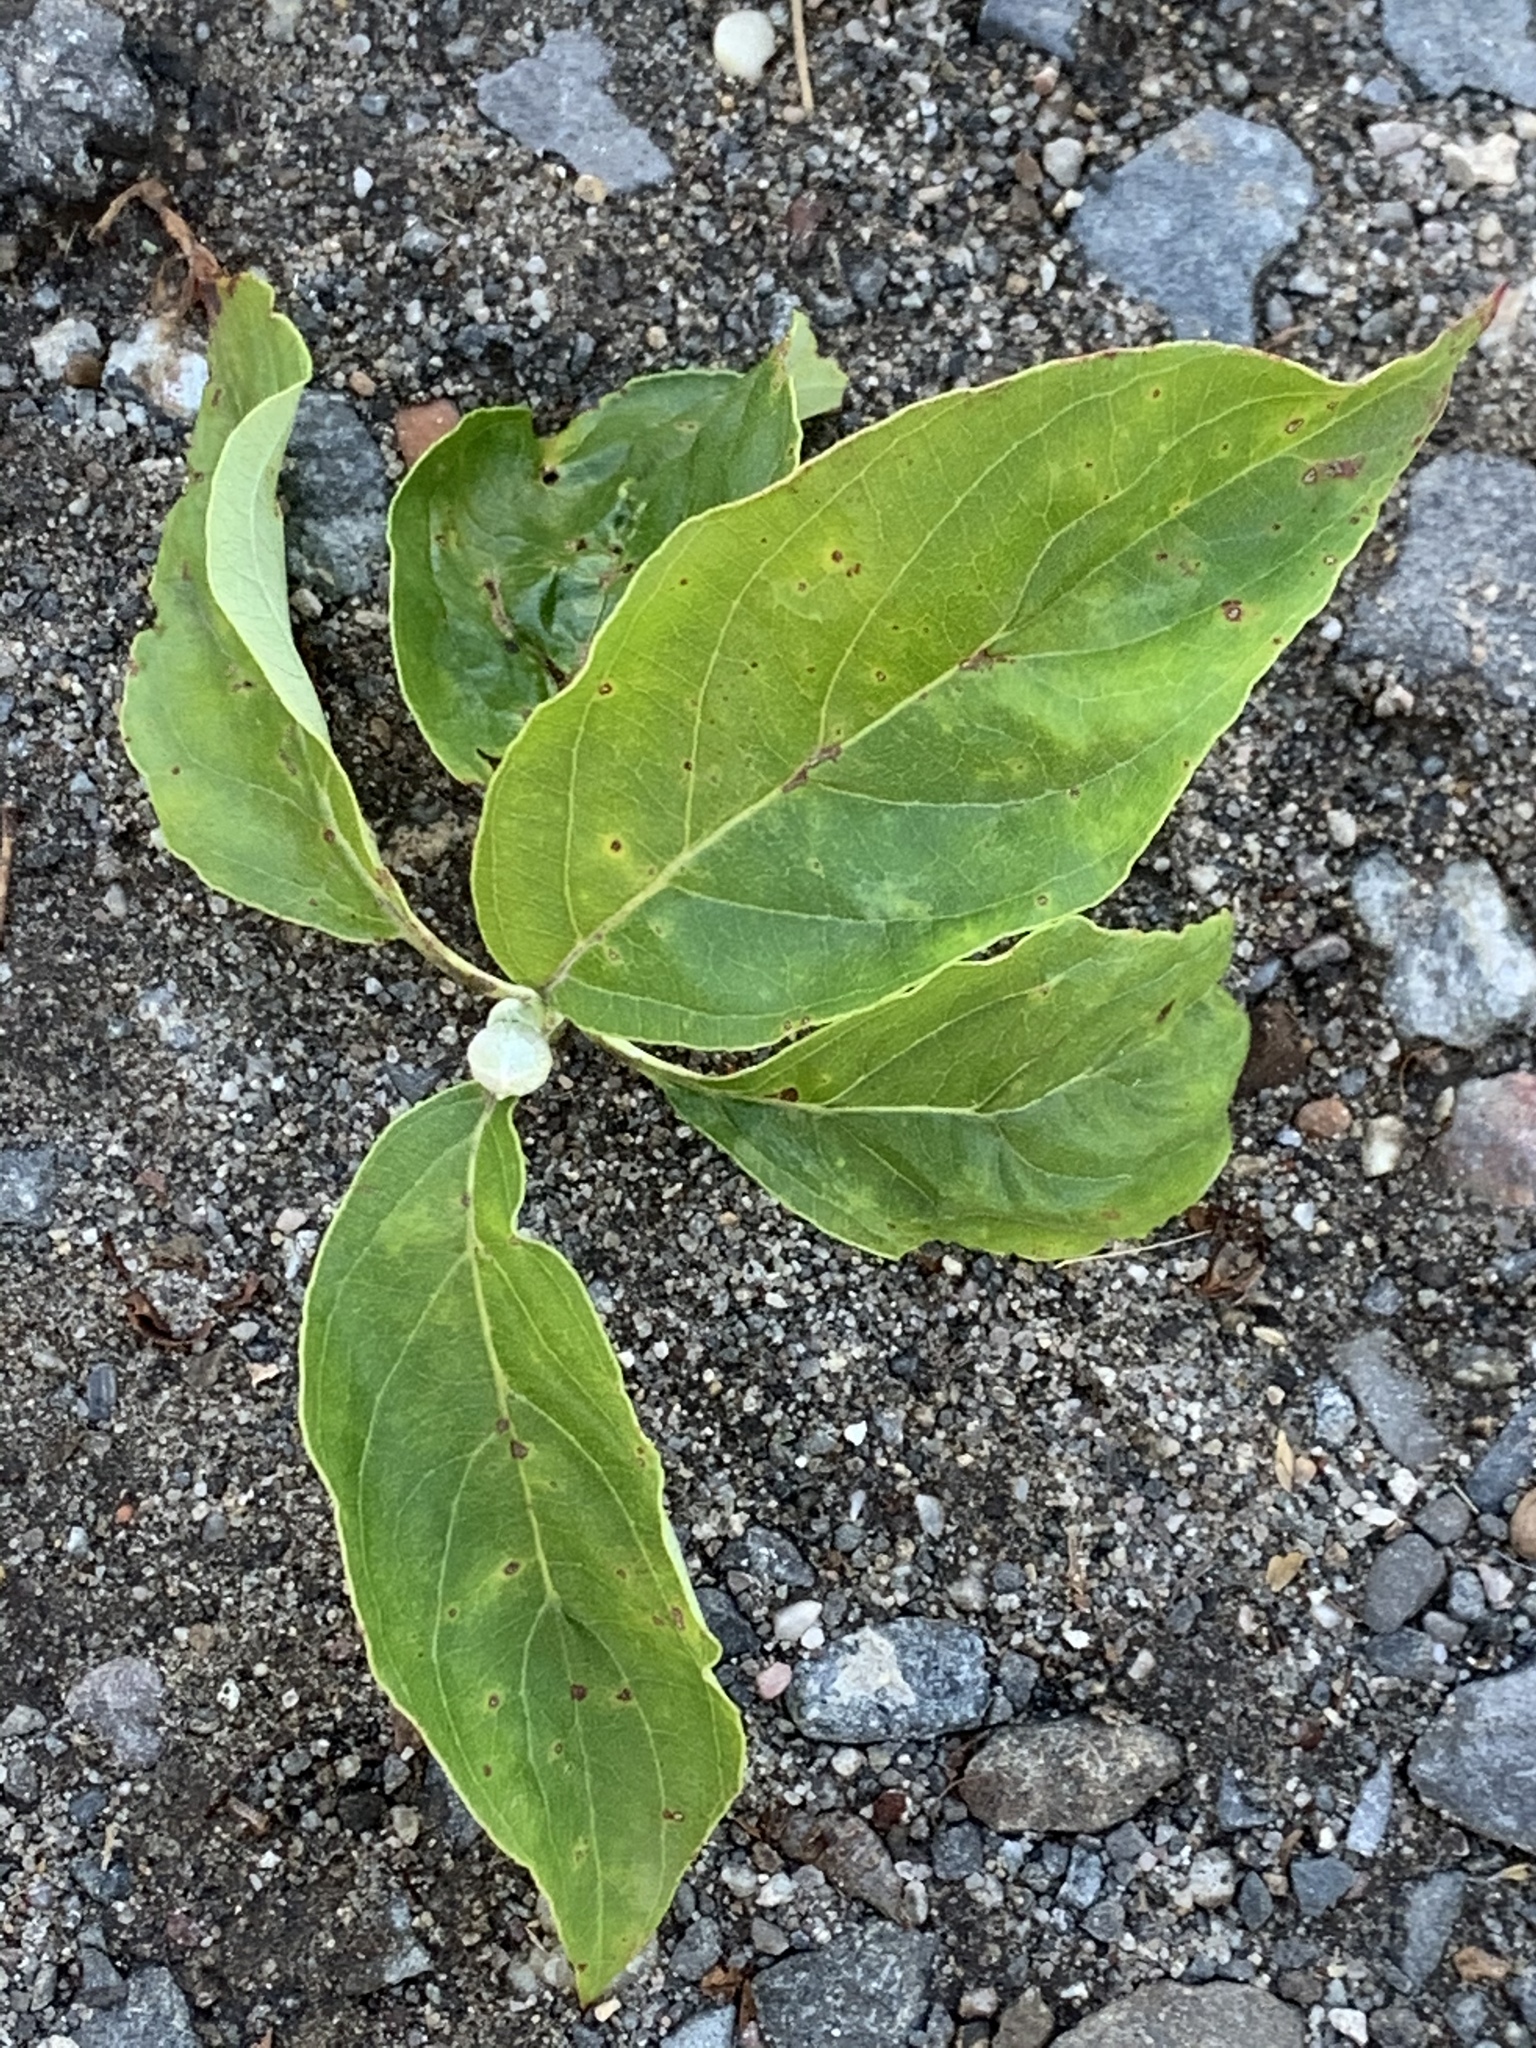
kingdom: Plantae
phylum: Tracheophyta
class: Magnoliopsida
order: Cornales
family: Cornaceae
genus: Cornus
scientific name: Cornus florida
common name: Flowering dogwood
